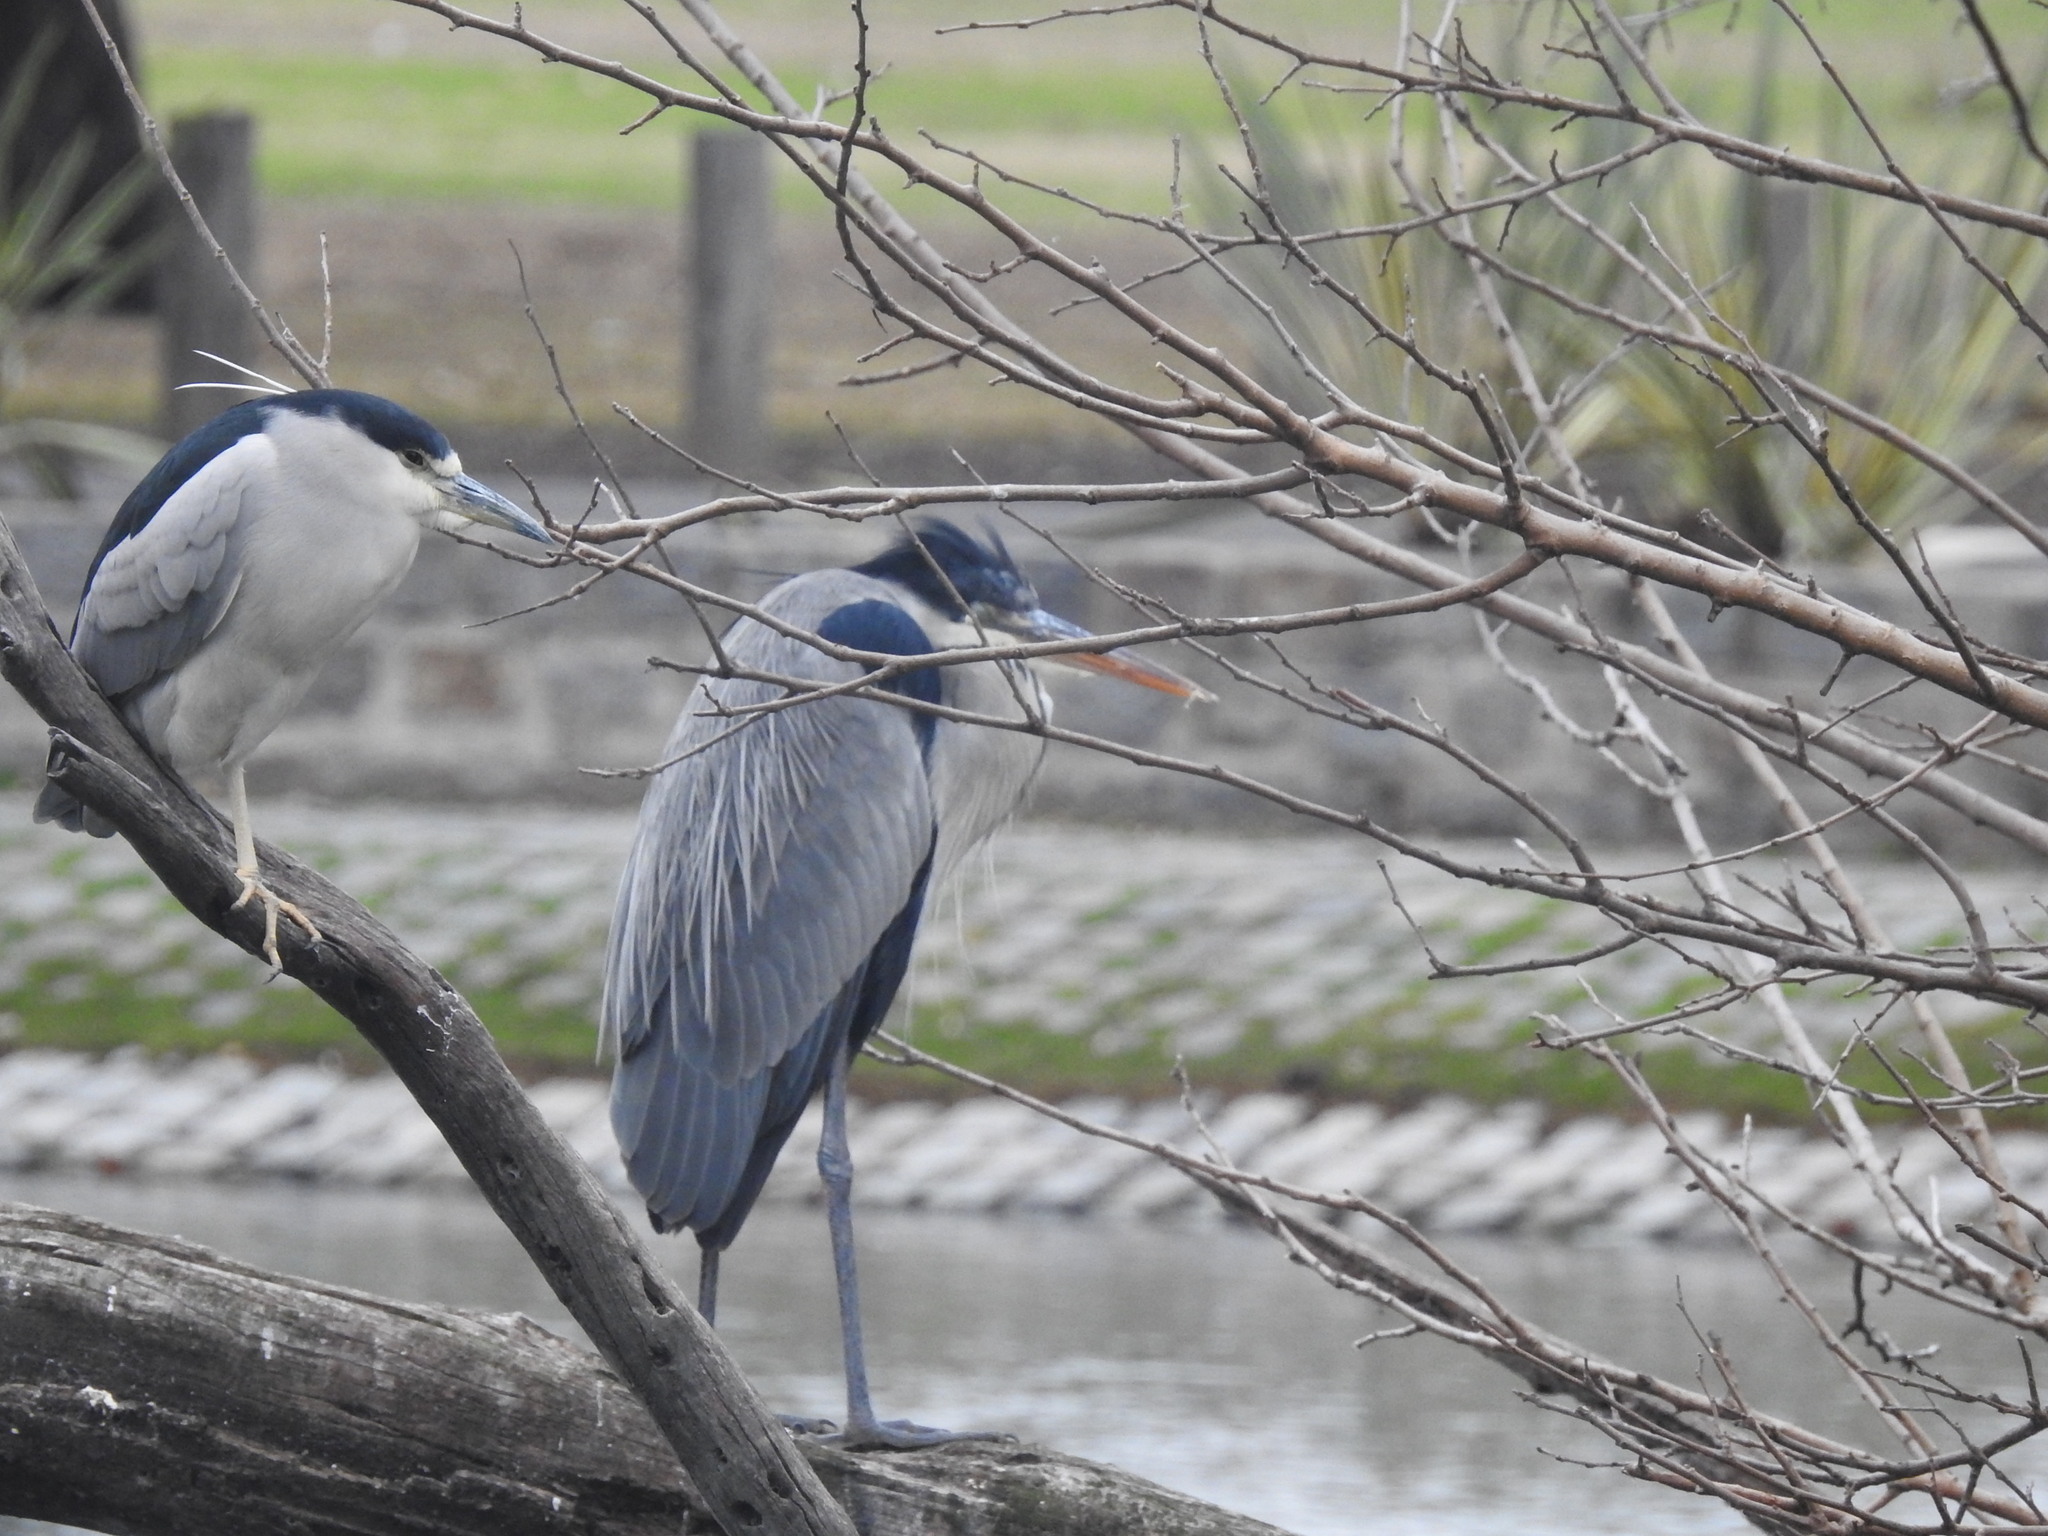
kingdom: Animalia
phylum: Chordata
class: Aves
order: Pelecaniformes
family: Ardeidae
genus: Ardea
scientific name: Ardea cocoi
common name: Cocoi heron
